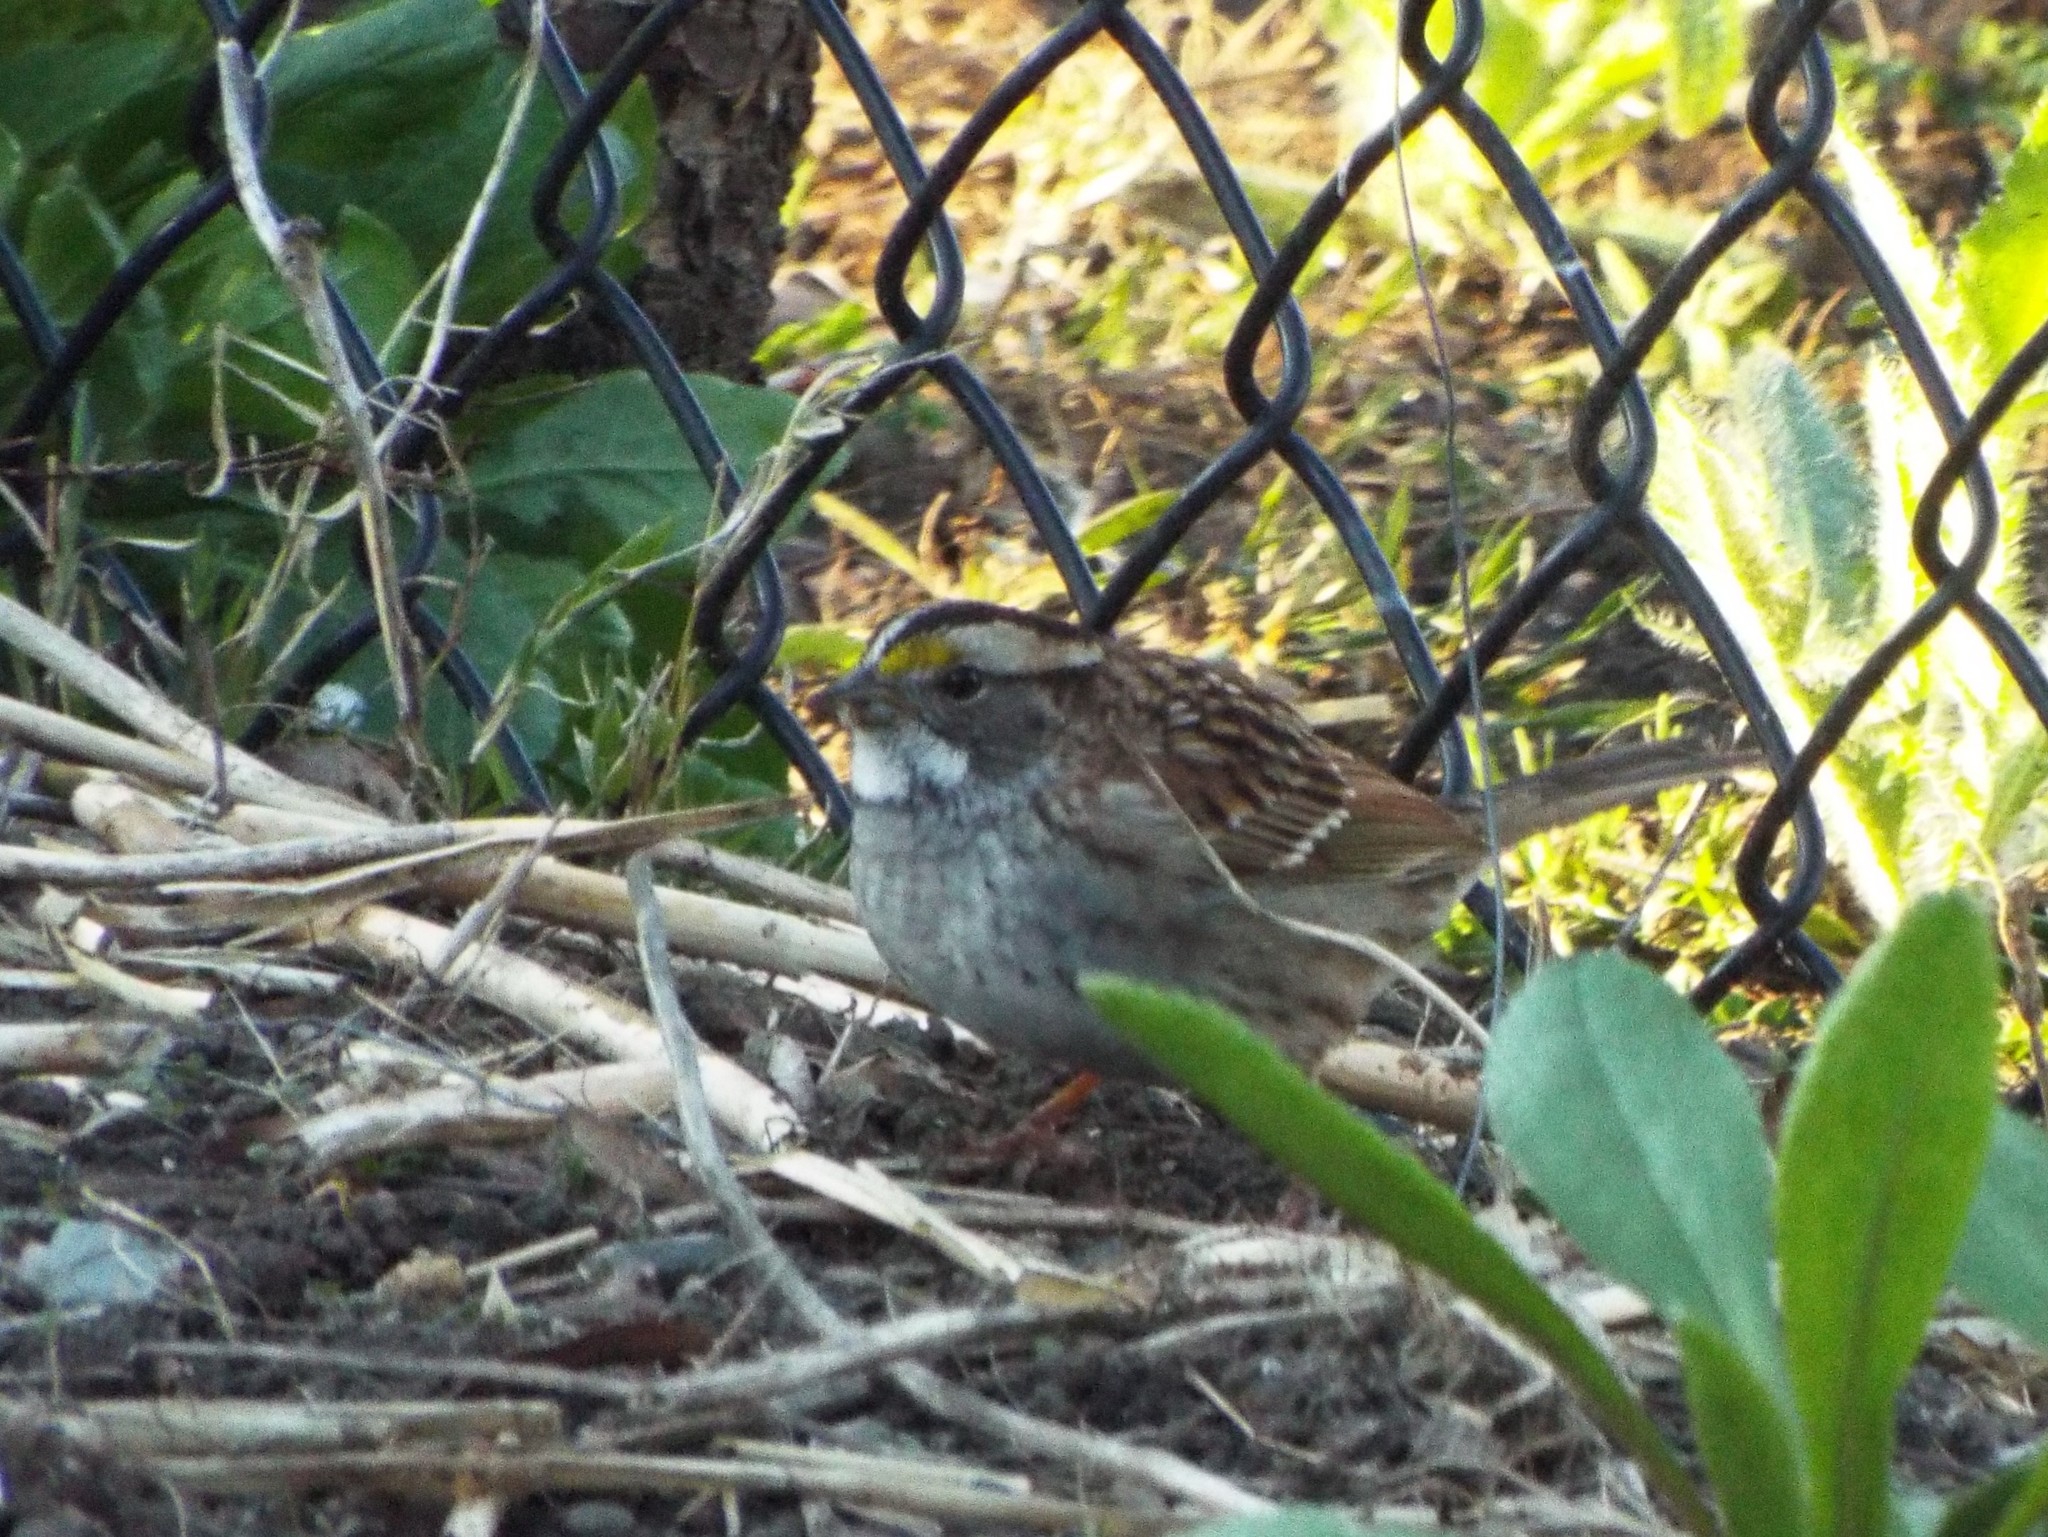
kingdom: Animalia
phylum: Chordata
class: Aves
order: Passeriformes
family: Passerellidae
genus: Zonotrichia
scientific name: Zonotrichia albicollis
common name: White-throated sparrow
